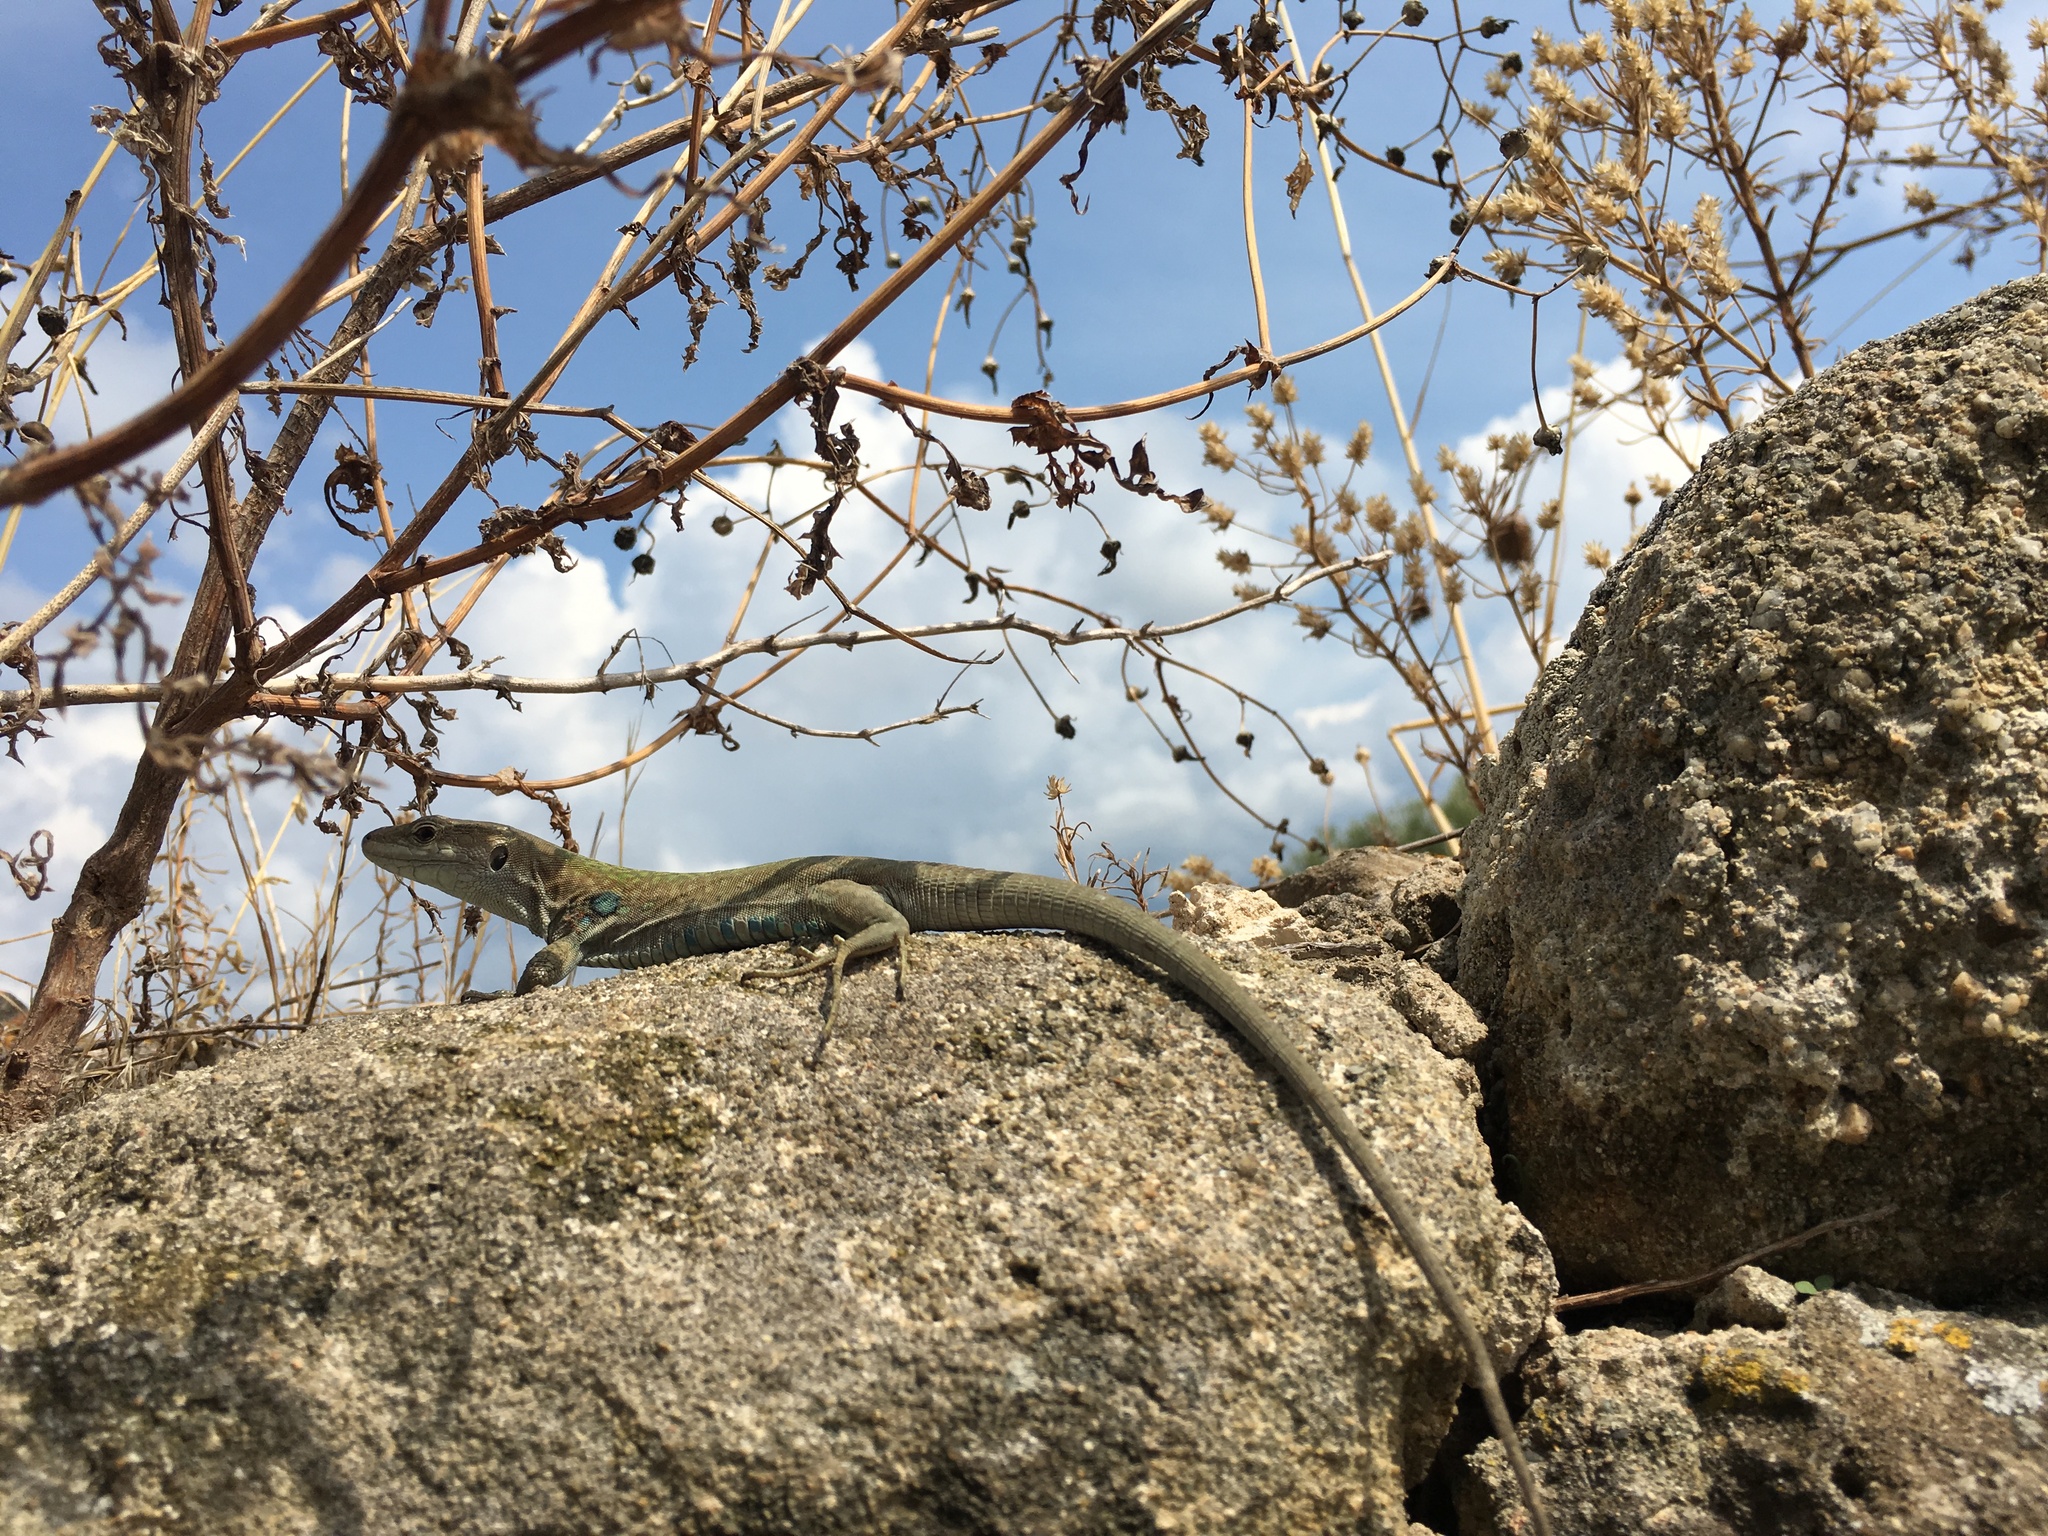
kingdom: Animalia
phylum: Chordata
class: Squamata
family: Lacertidae
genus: Podarcis
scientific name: Podarcis siculus
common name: Italian wall lizard
